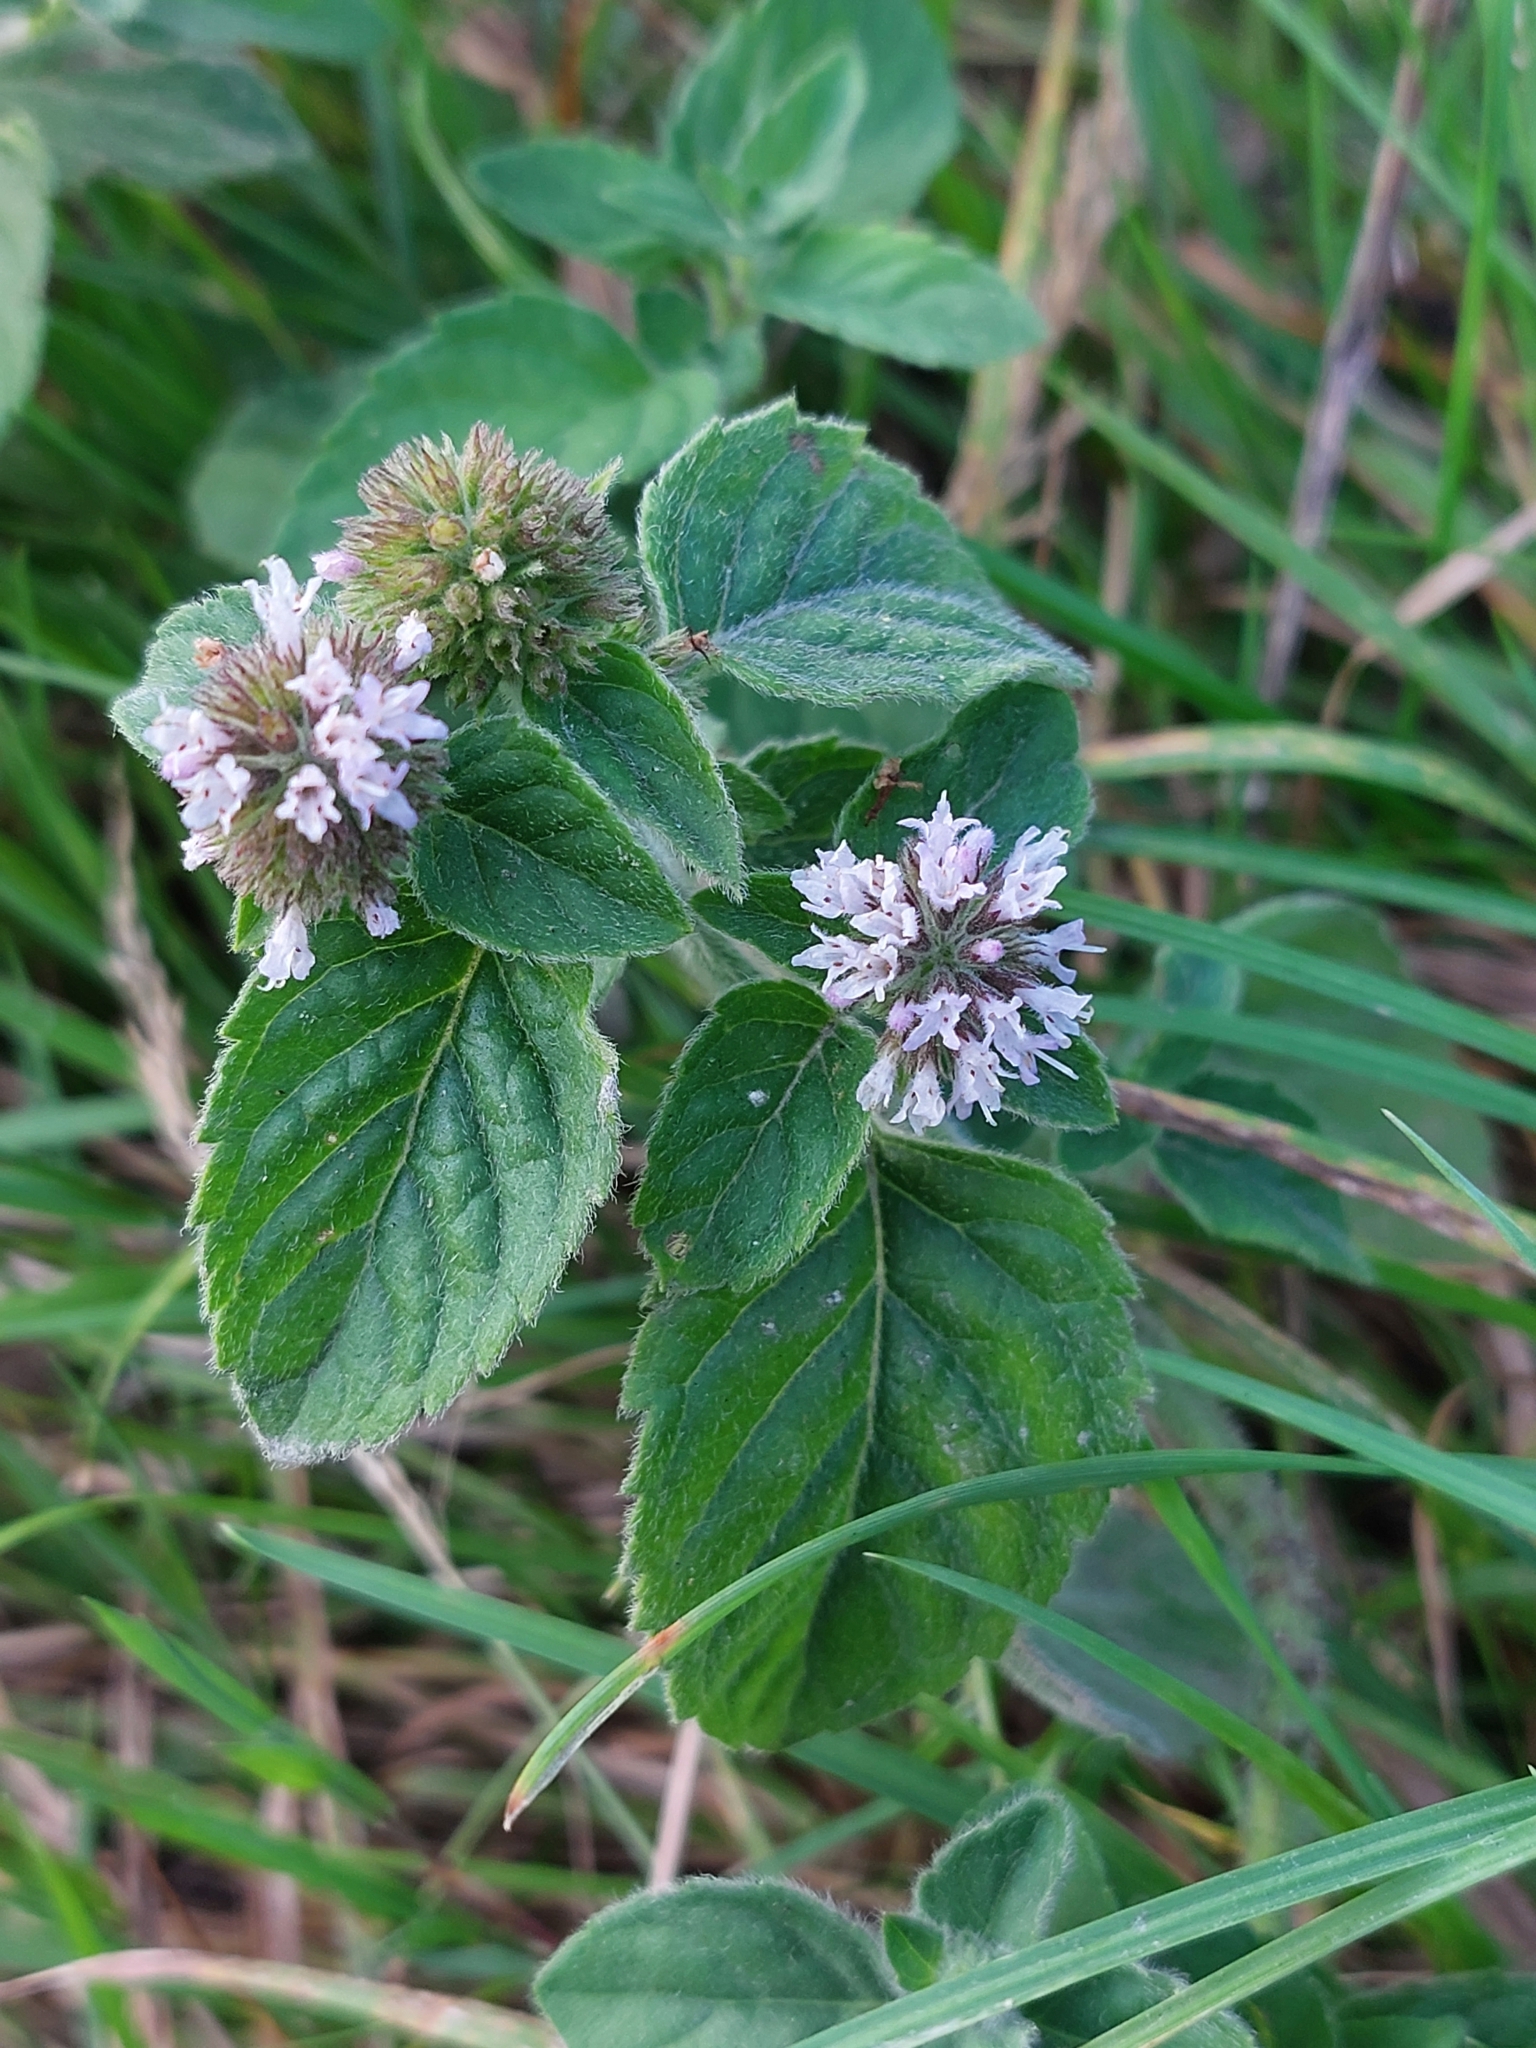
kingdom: Plantae
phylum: Tracheophyta
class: Magnoliopsida
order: Lamiales
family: Lamiaceae
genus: Mentha
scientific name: Mentha aquatica
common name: Water mint
